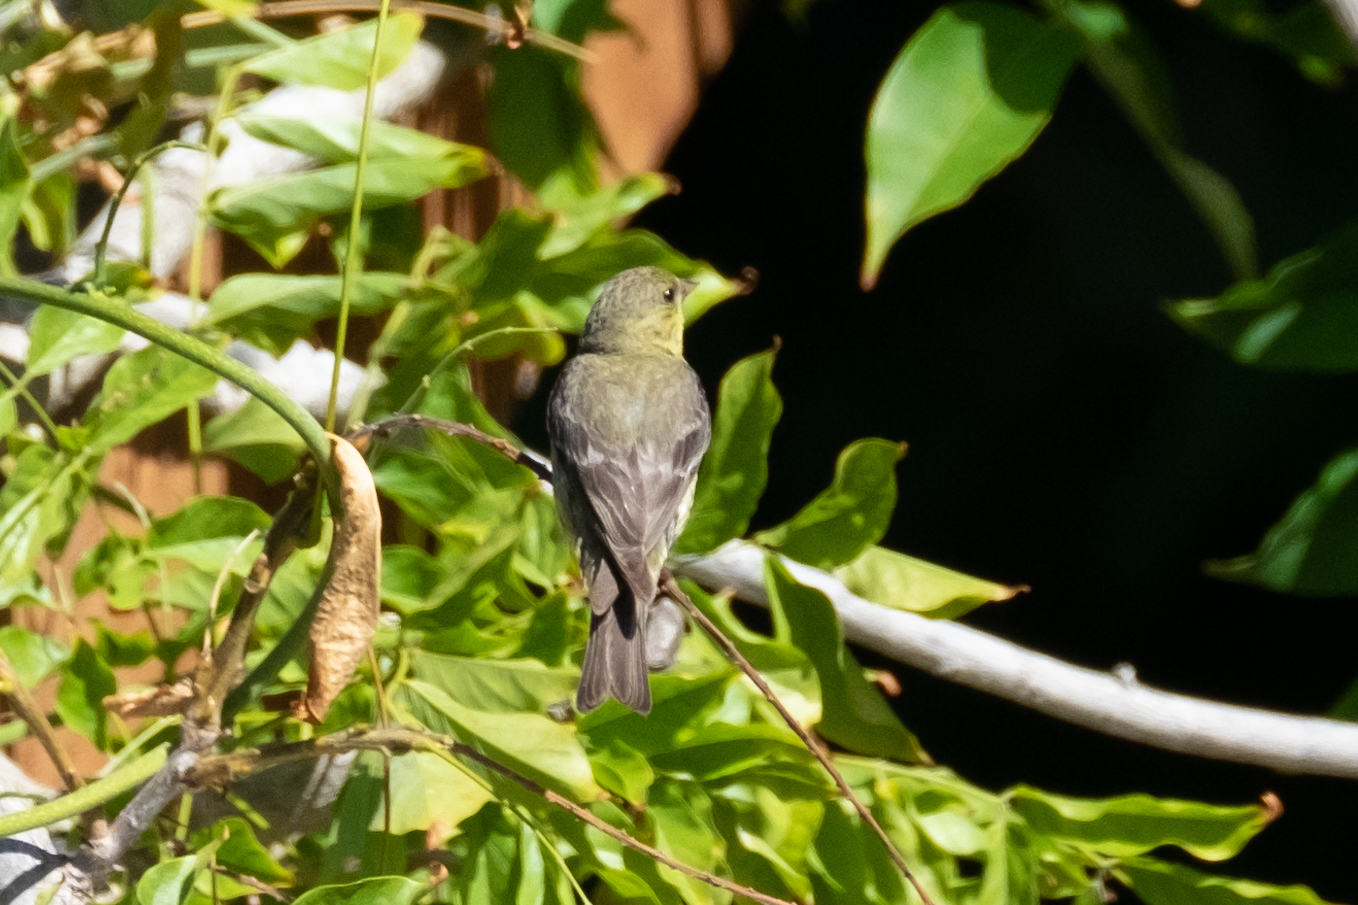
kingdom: Animalia
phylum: Chordata
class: Aves
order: Passeriformes
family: Fringillidae
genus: Spinus
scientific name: Spinus psaltria
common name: Lesser goldfinch
